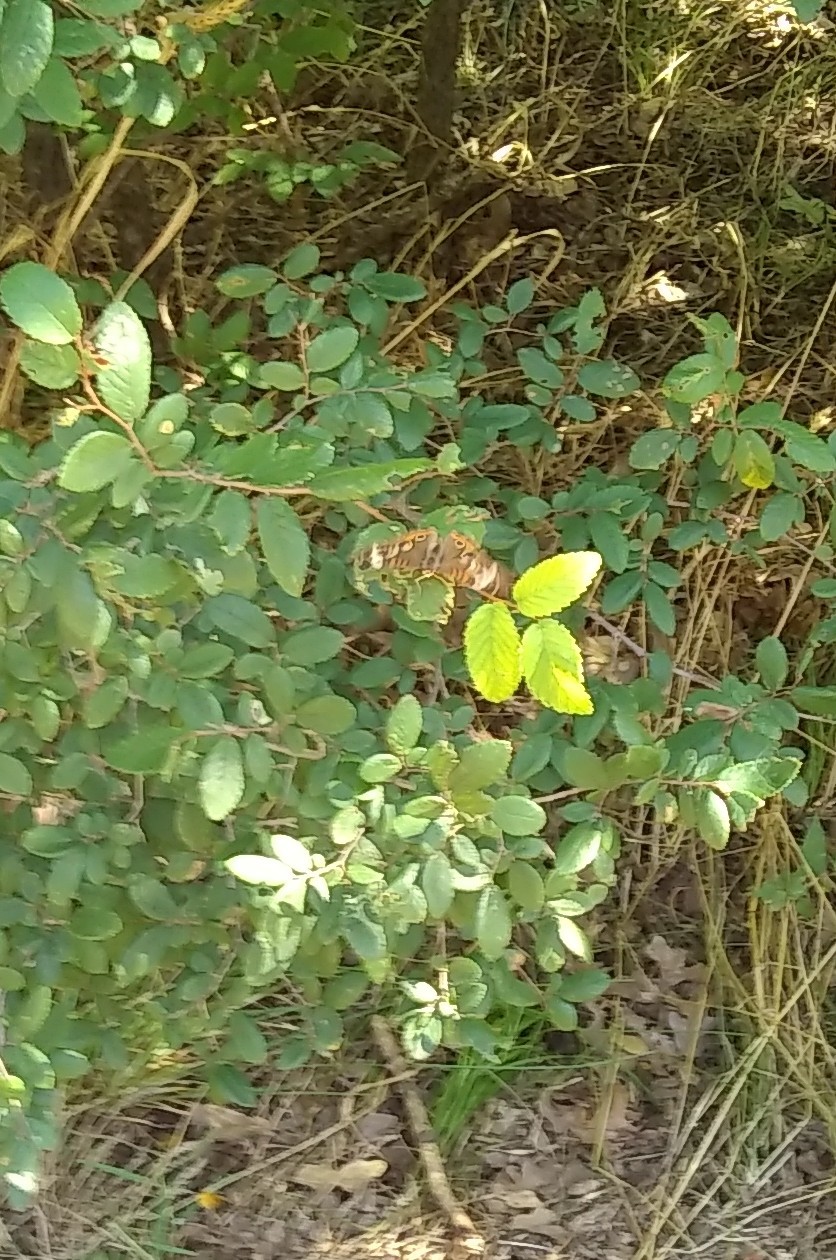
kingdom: Animalia
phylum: Arthropoda
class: Insecta
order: Lepidoptera
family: Nymphalidae
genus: Junonia
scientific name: Junonia coenia
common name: Common buckeye
